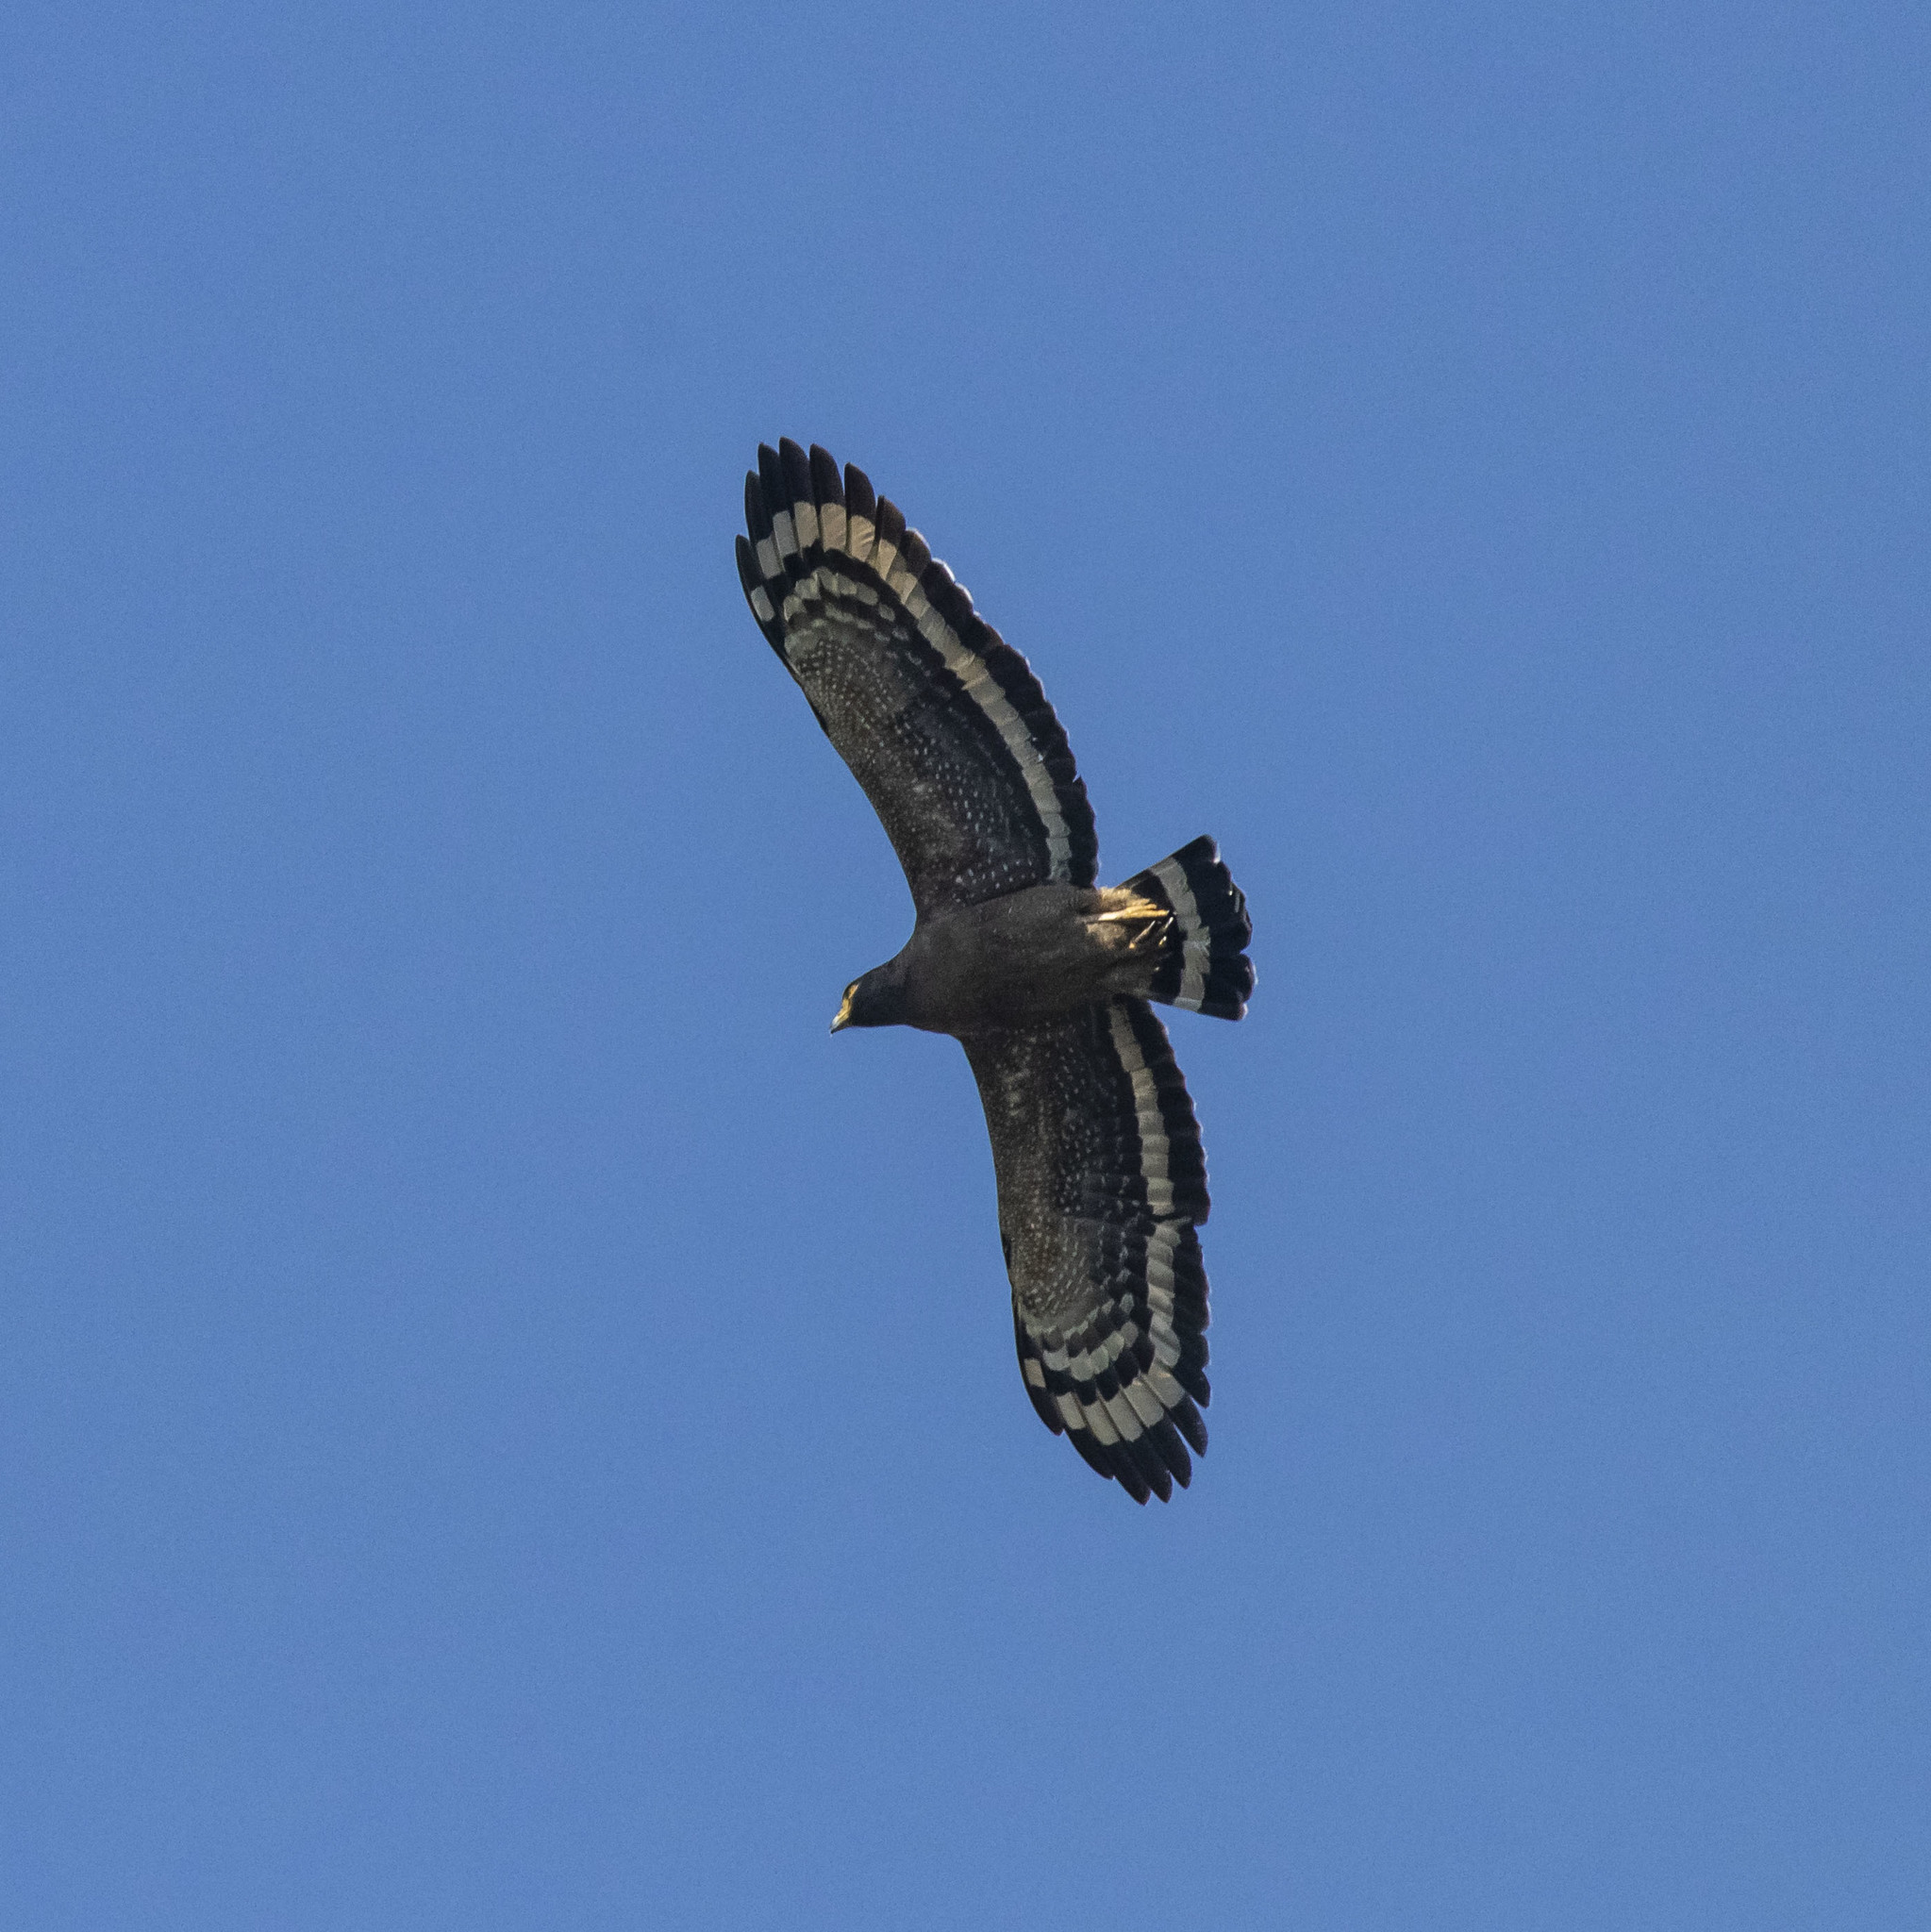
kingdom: Animalia
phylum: Chordata
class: Aves
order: Accipitriformes
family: Accipitridae
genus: Spilornis
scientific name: Spilornis cheela
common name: Crested serpent eagle
